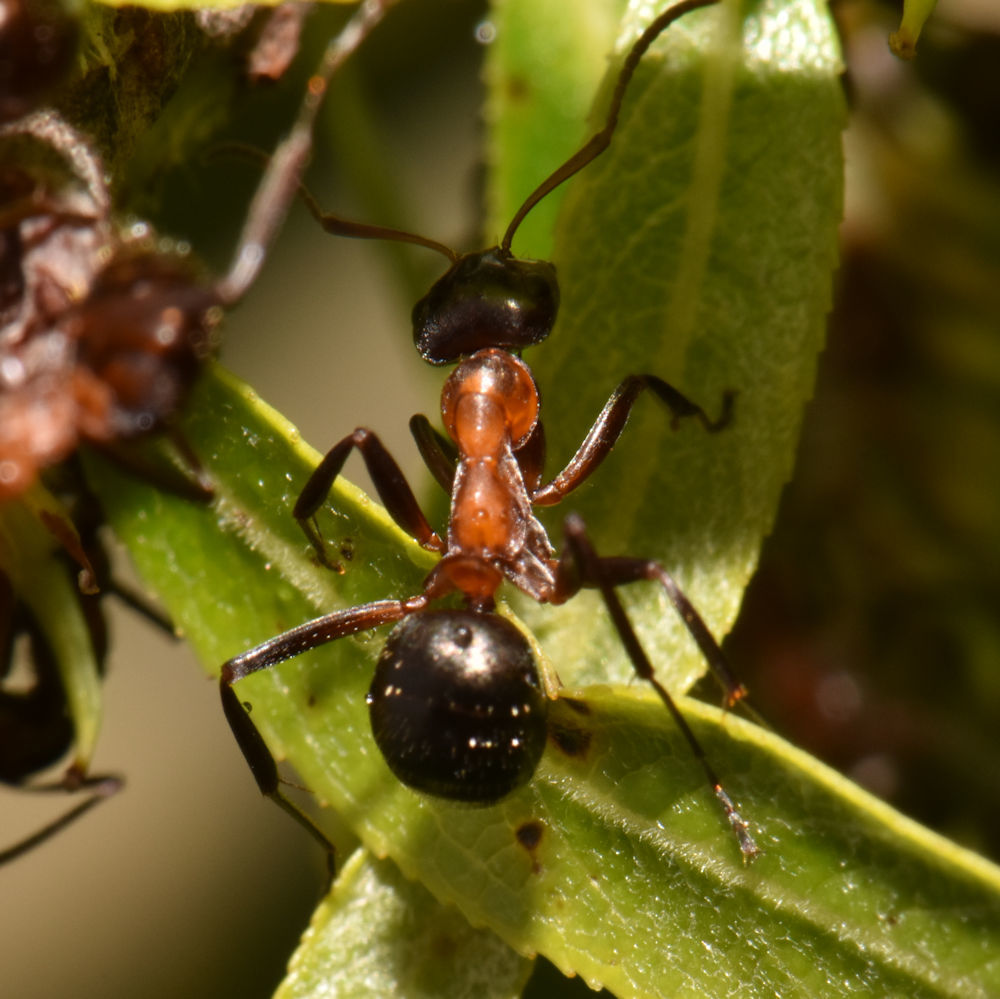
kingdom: Animalia
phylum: Arthropoda
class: Insecta
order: Hymenoptera
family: Formicidae
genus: Formica
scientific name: Formica ulkei
